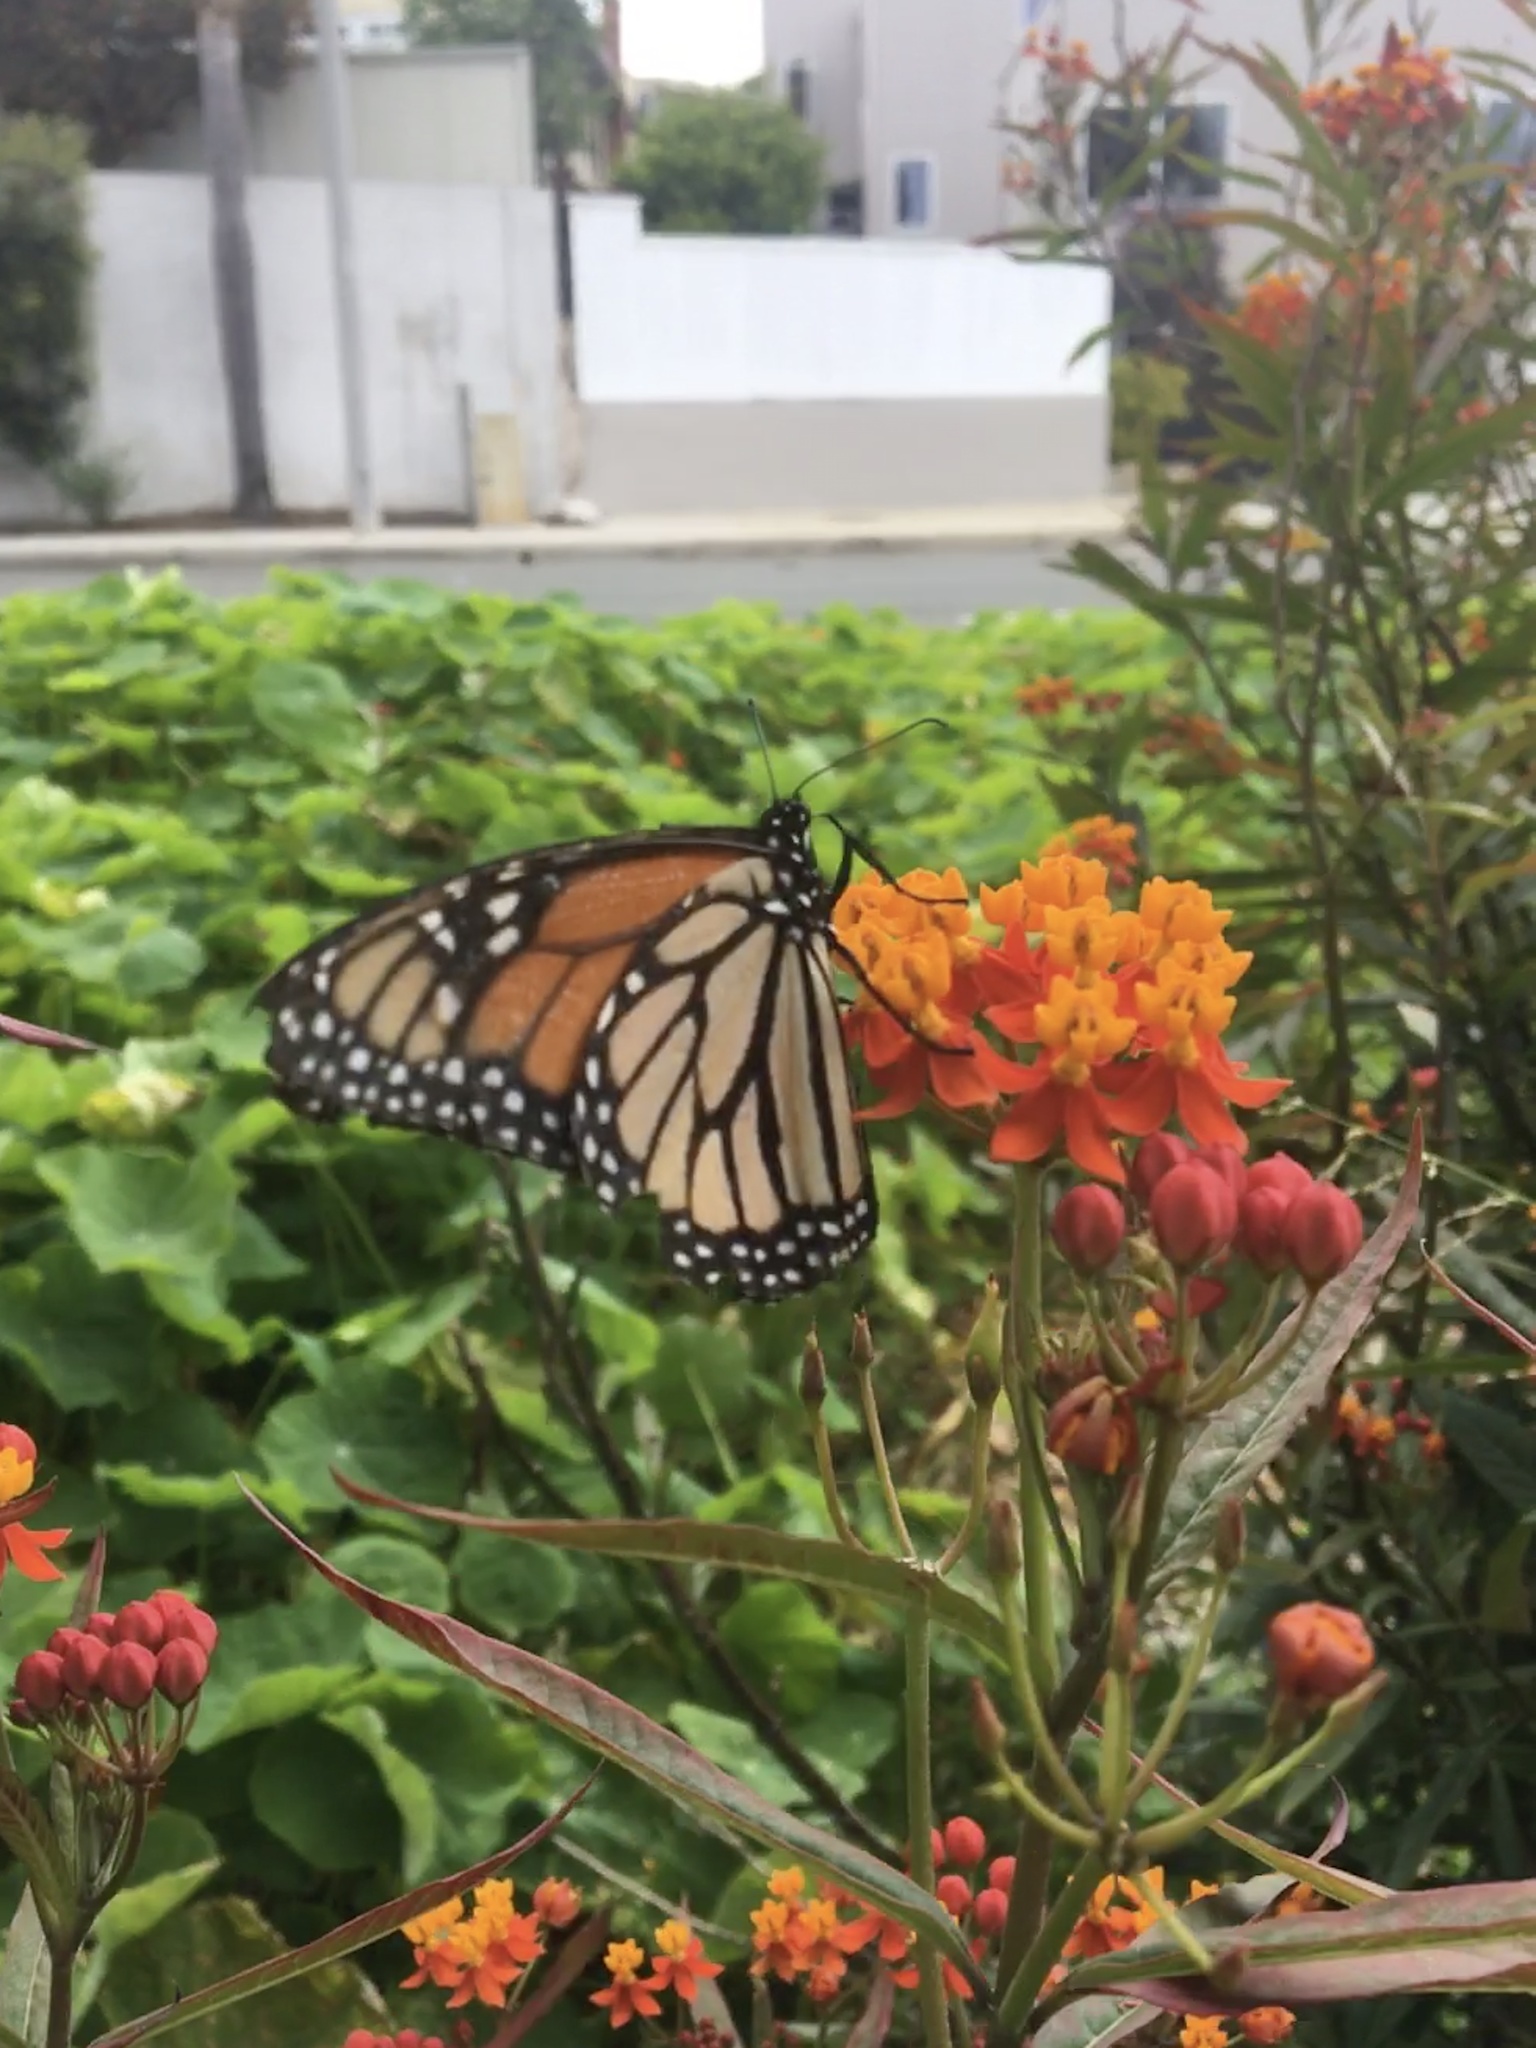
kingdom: Animalia
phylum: Arthropoda
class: Insecta
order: Lepidoptera
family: Nymphalidae
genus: Danaus
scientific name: Danaus plexippus
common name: Monarch
